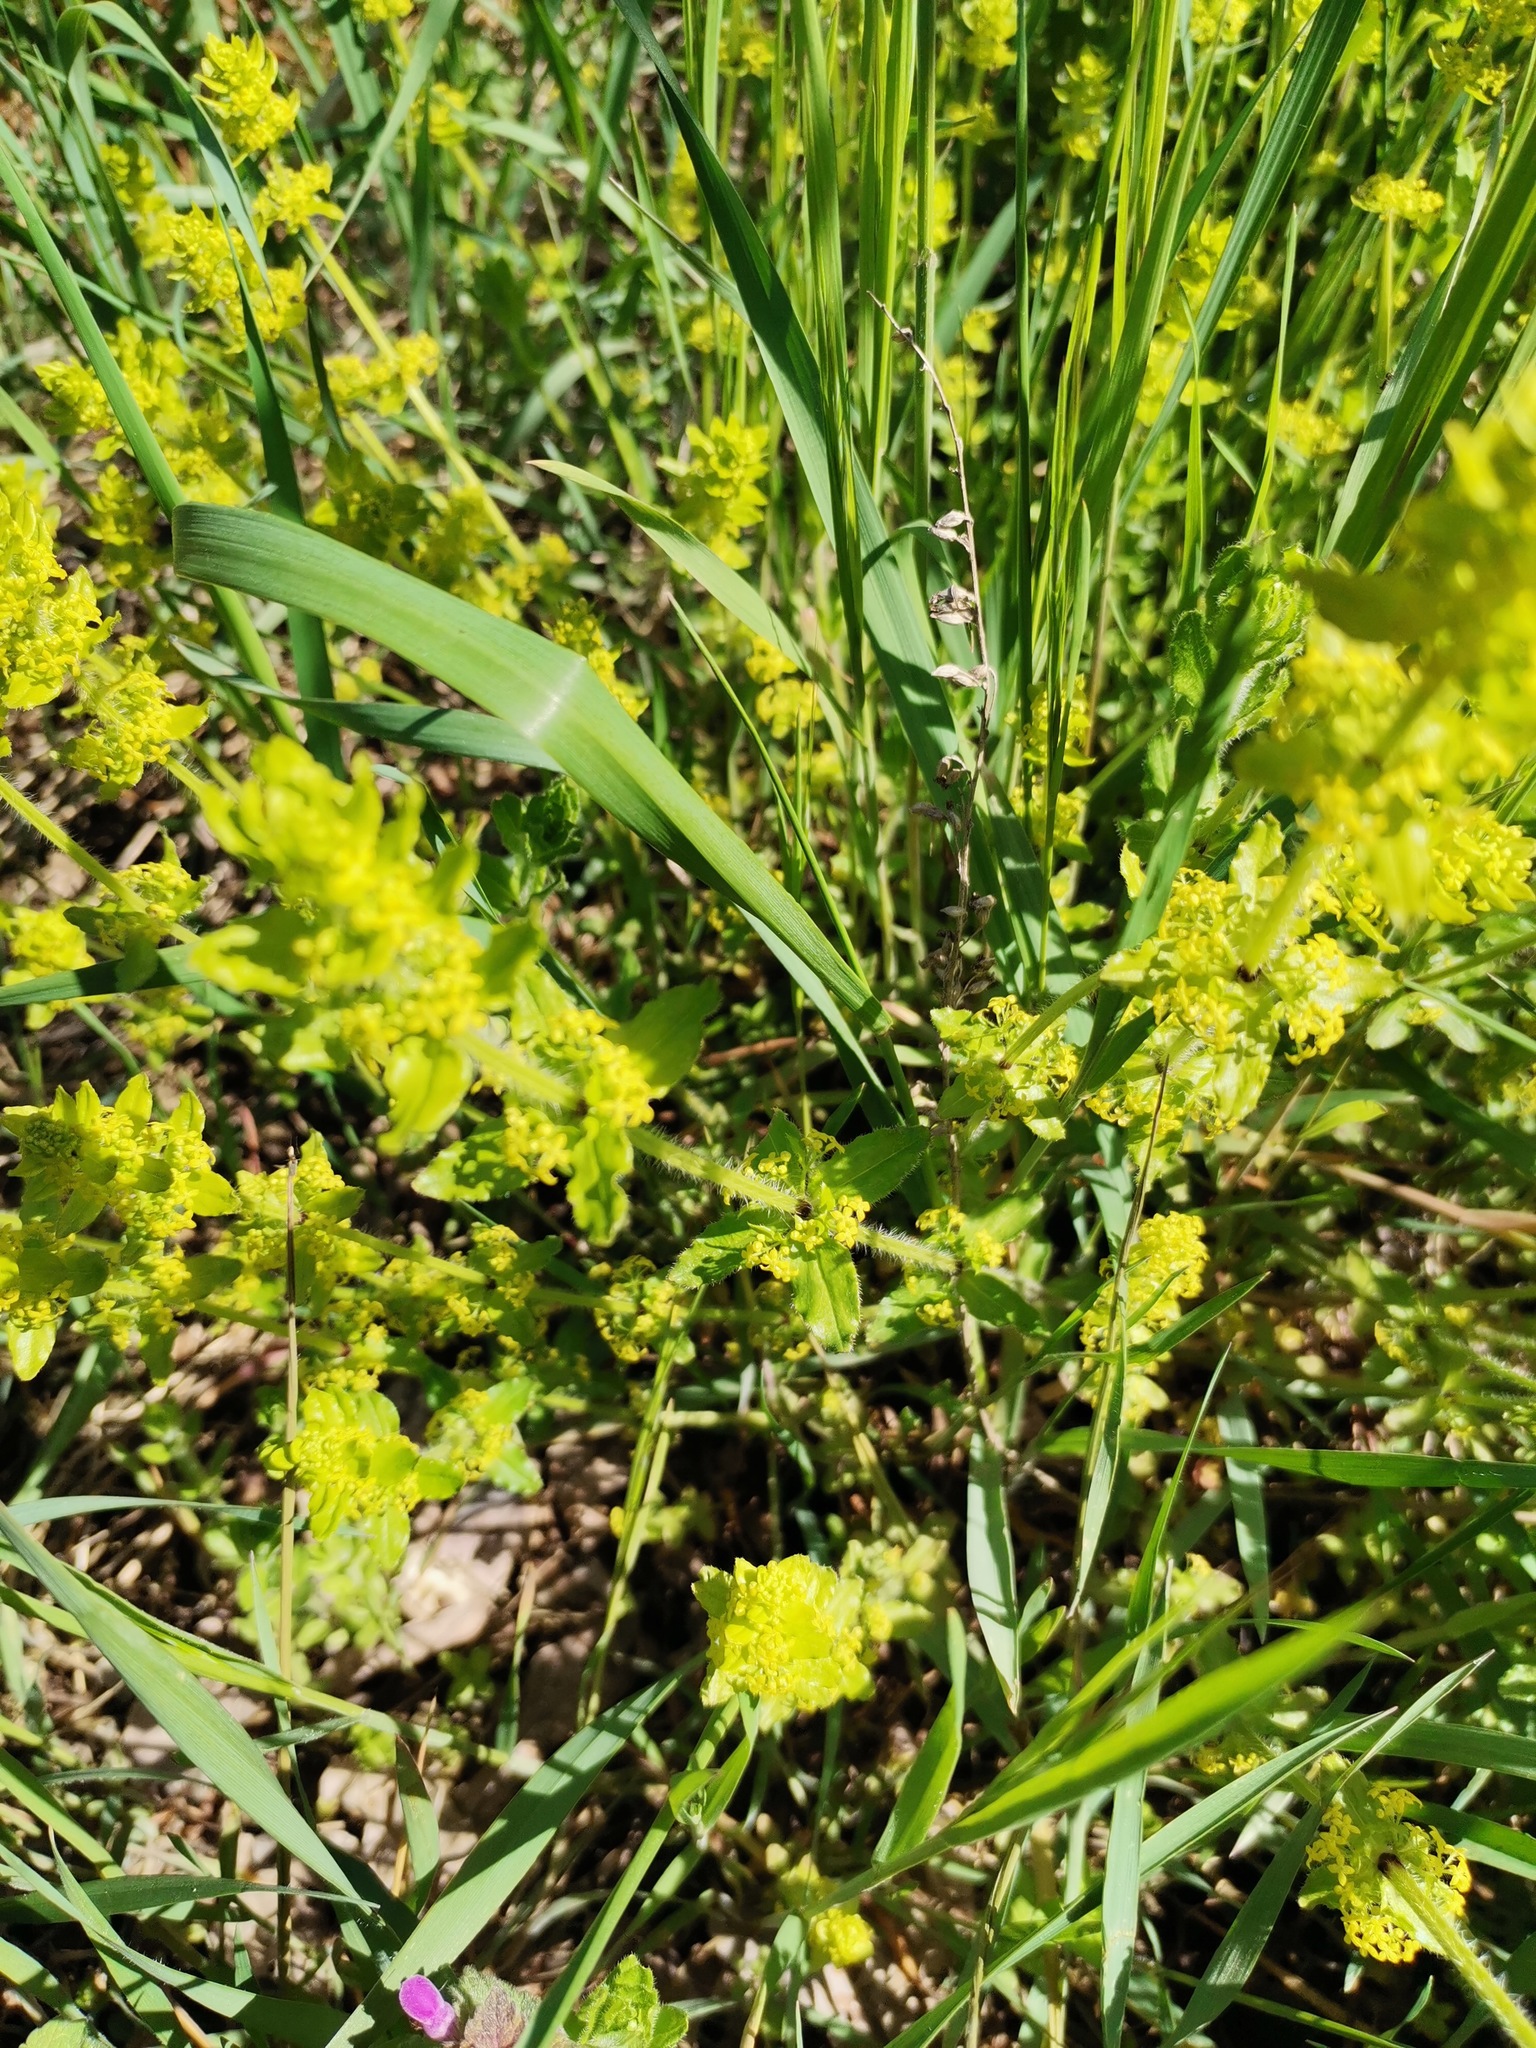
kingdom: Plantae
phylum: Tracheophyta
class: Magnoliopsida
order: Gentianales
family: Rubiaceae
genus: Cruciata
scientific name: Cruciata laevipes
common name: Crosswort
